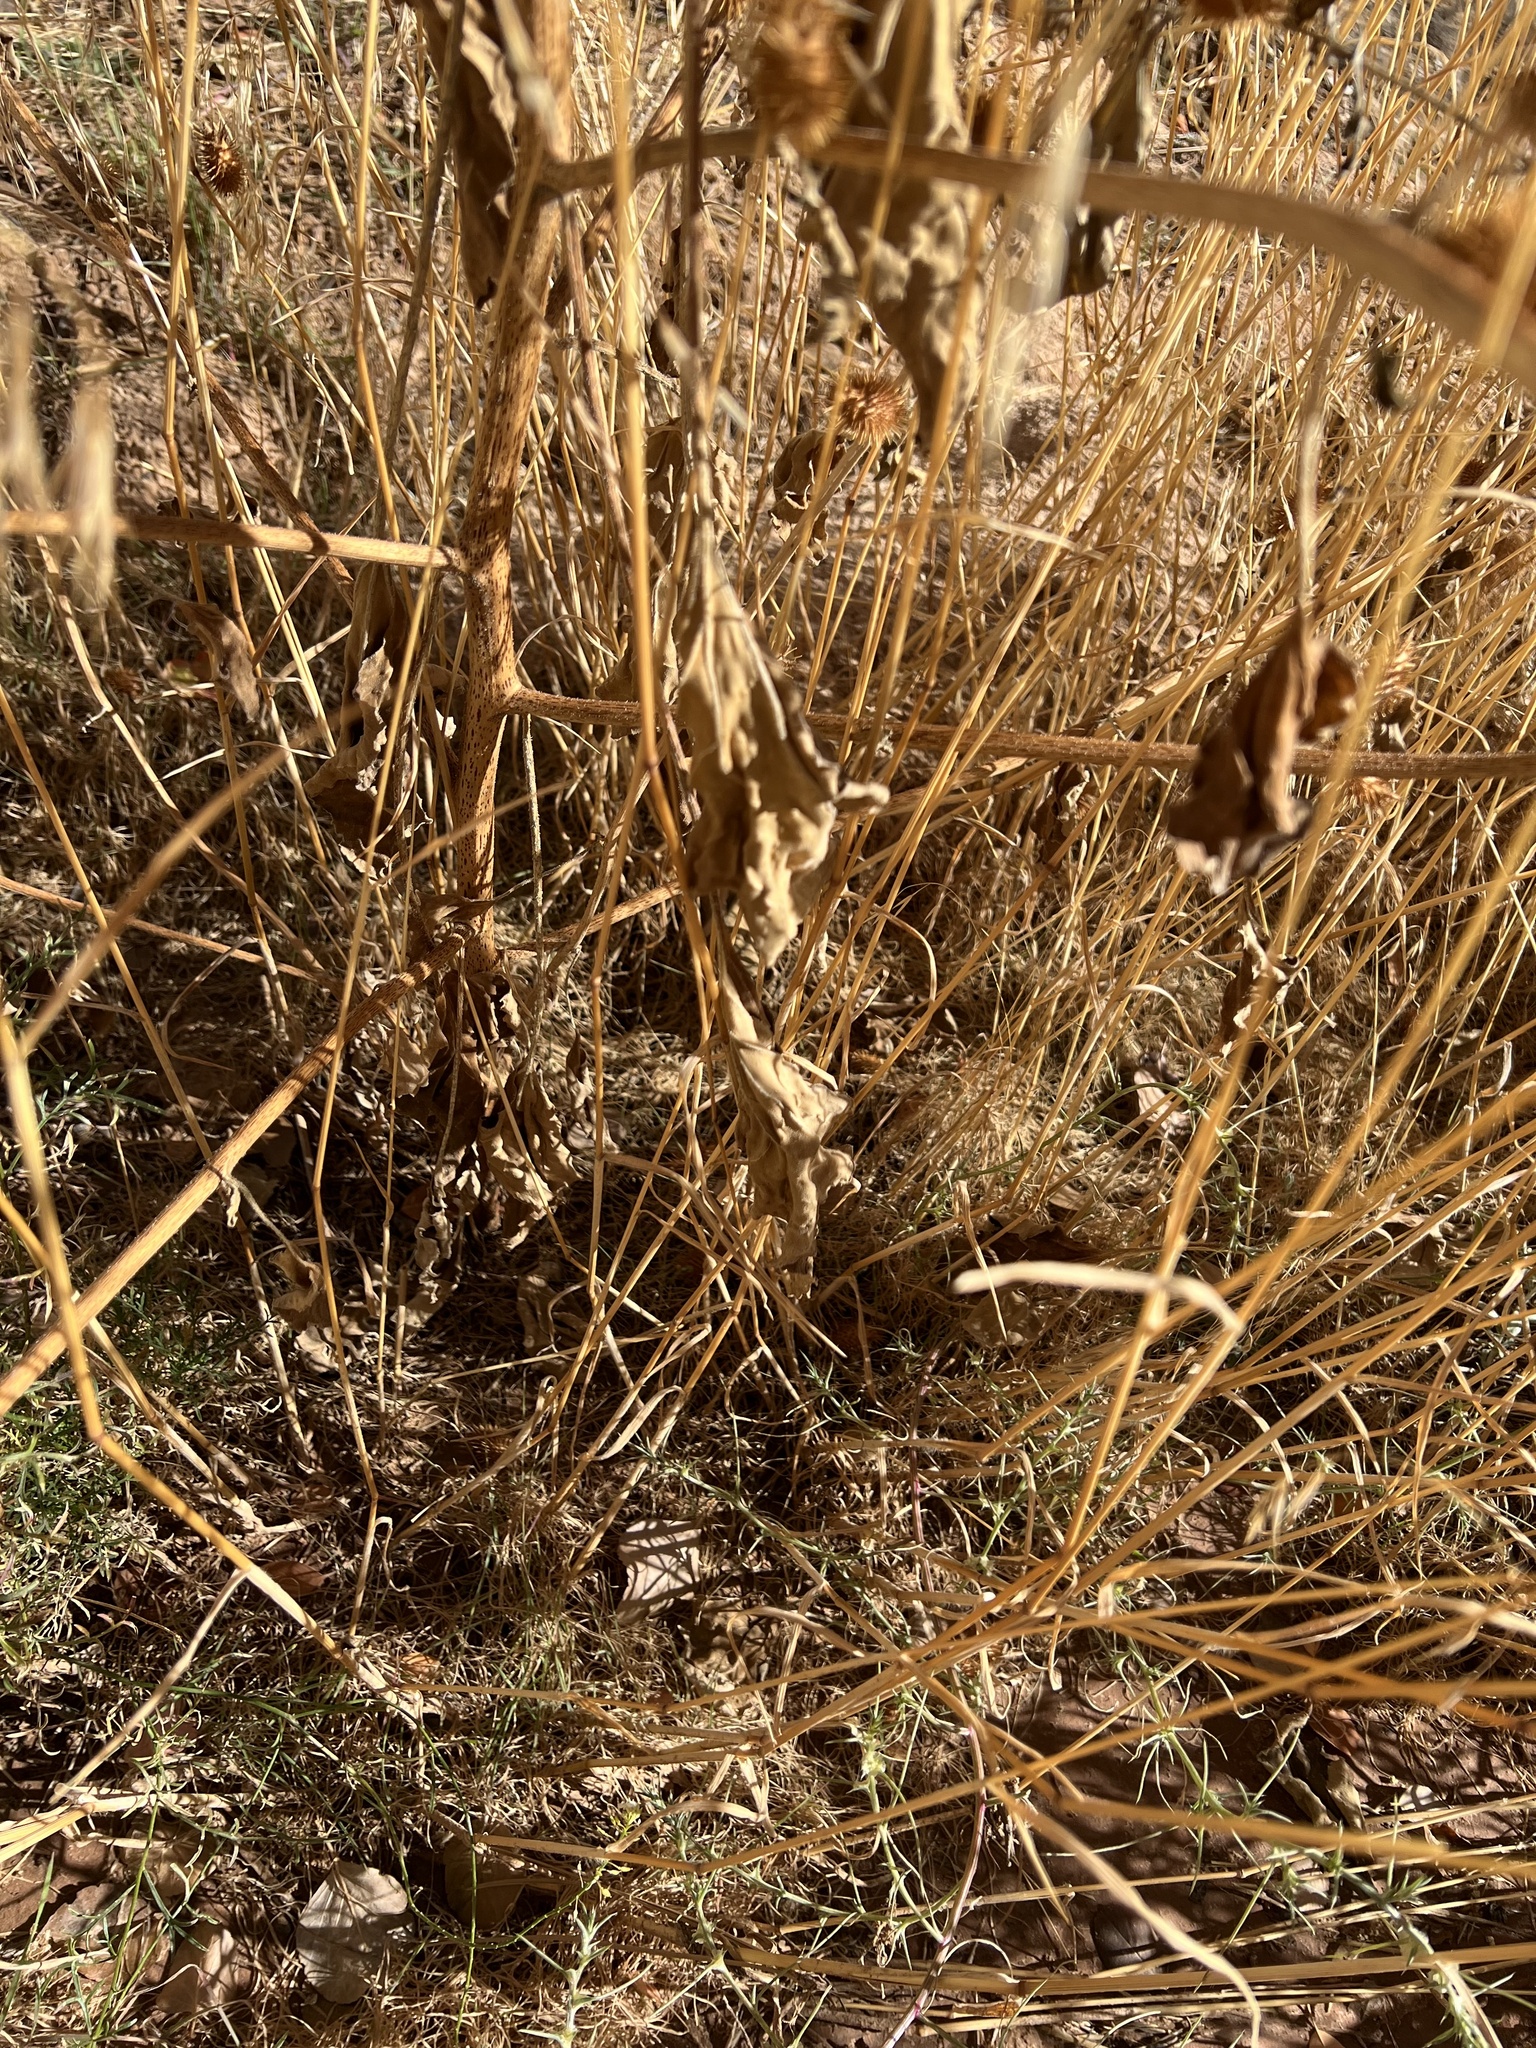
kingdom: Plantae
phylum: Tracheophyta
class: Magnoliopsida
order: Asterales
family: Asteraceae
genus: Xanthium
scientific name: Xanthium strumarium
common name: Rough cocklebur
